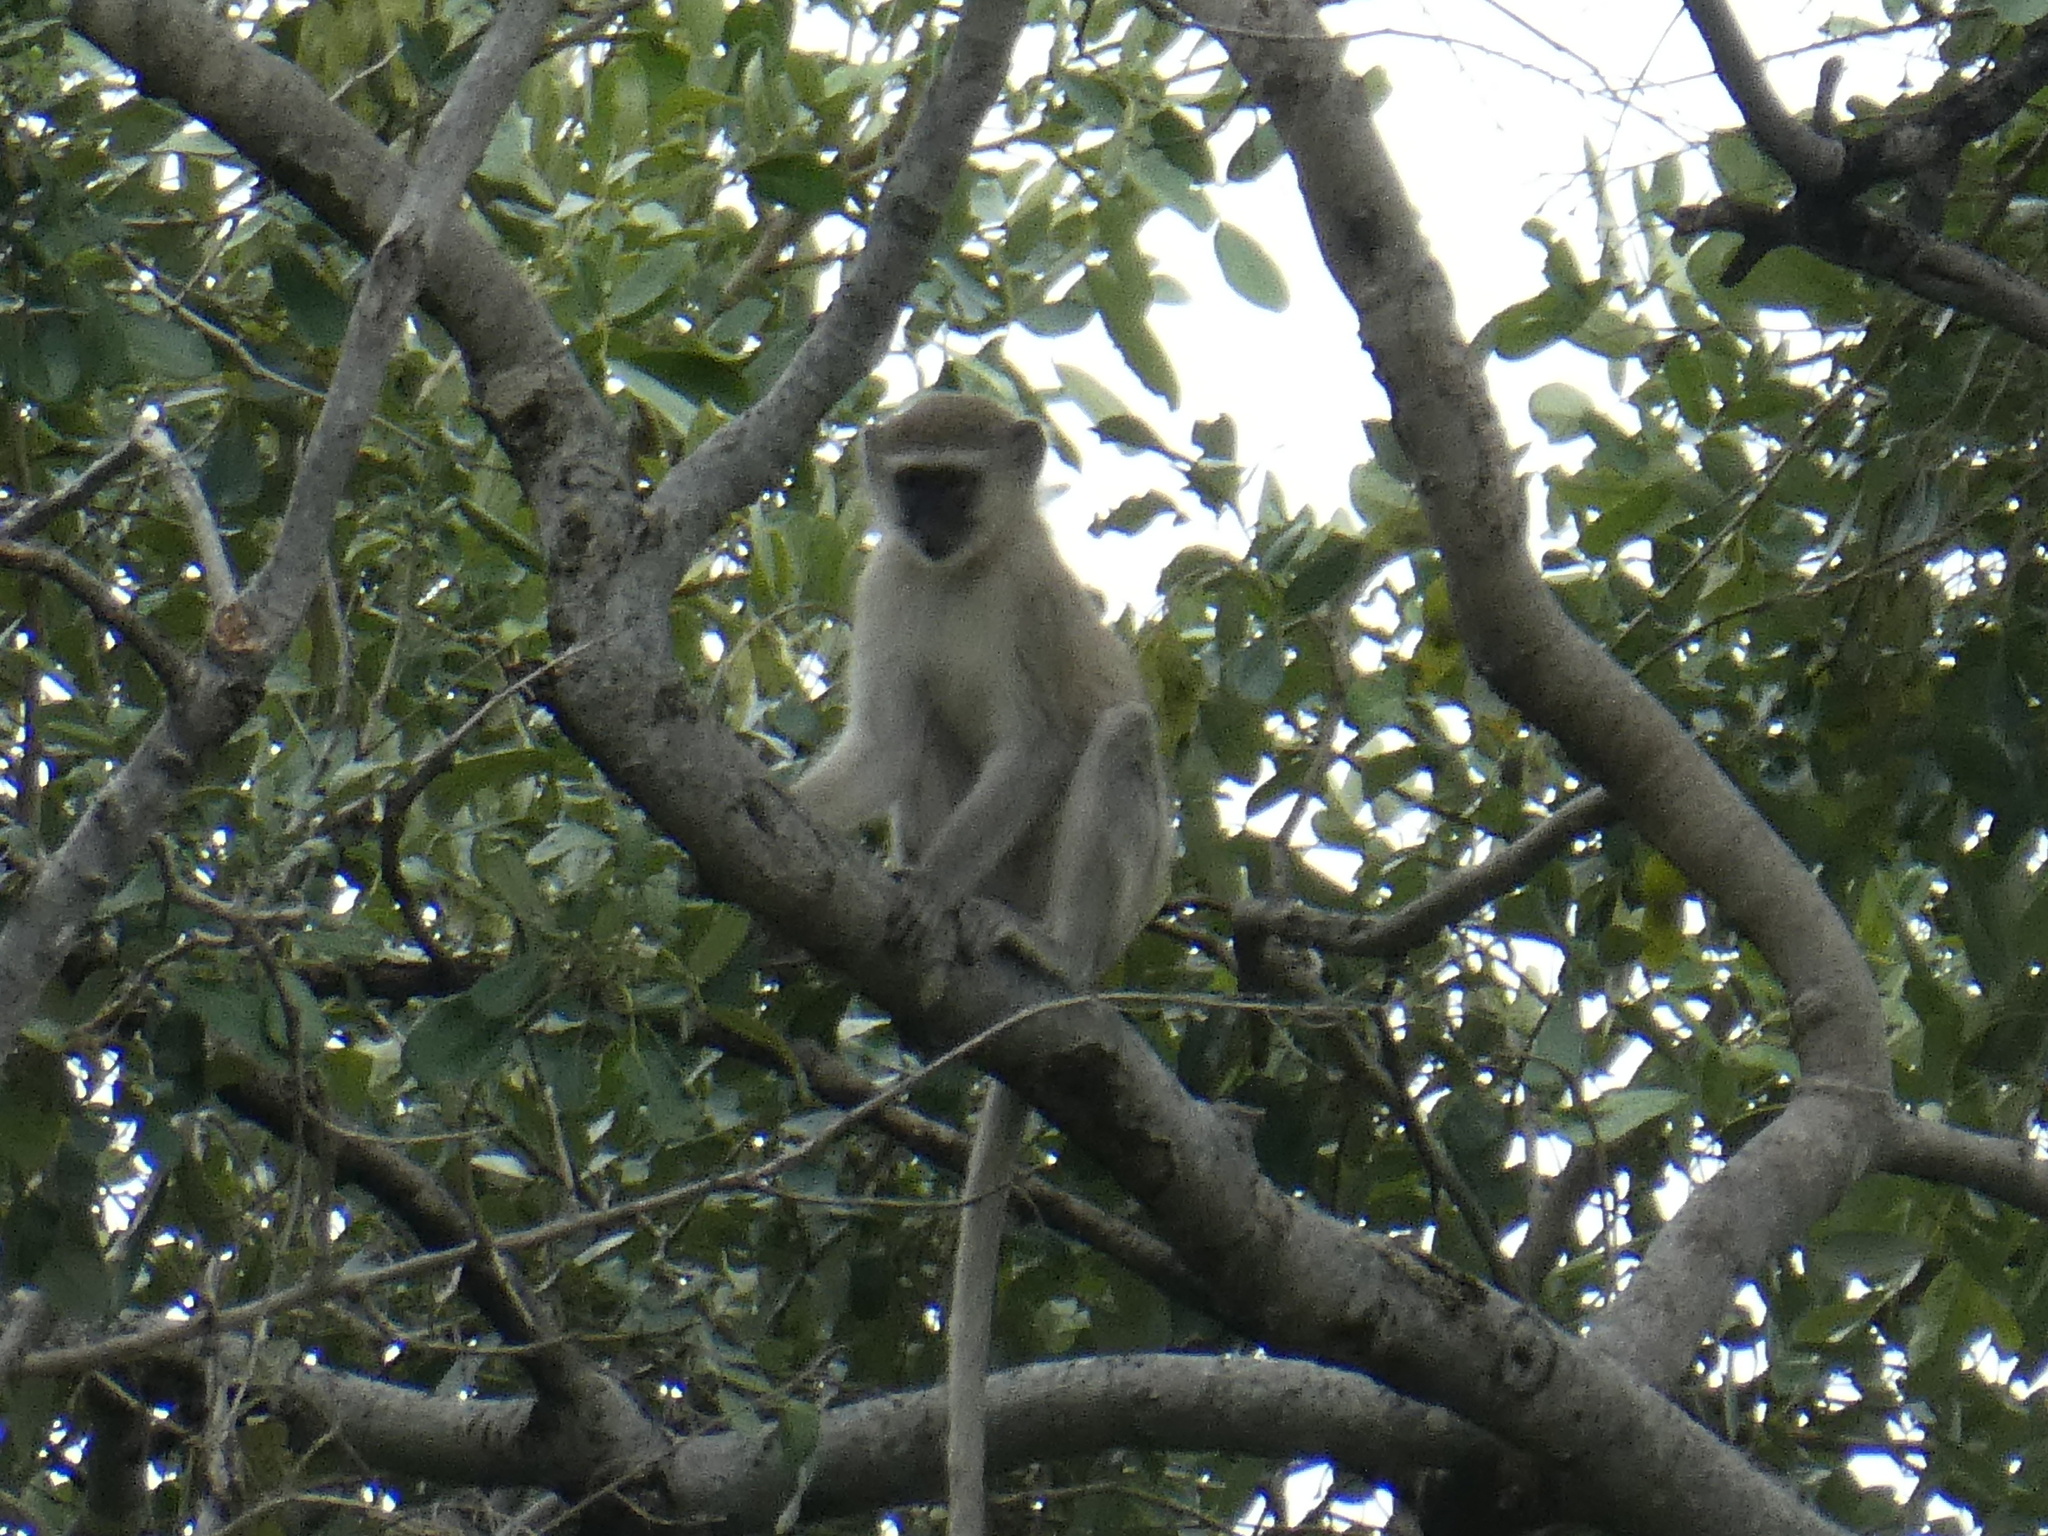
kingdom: Animalia
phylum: Chordata
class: Mammalia
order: Primates
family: Cercopithecidae
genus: Chlorocebus
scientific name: Chlorocebus pygerythrus
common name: Vervet monkey
